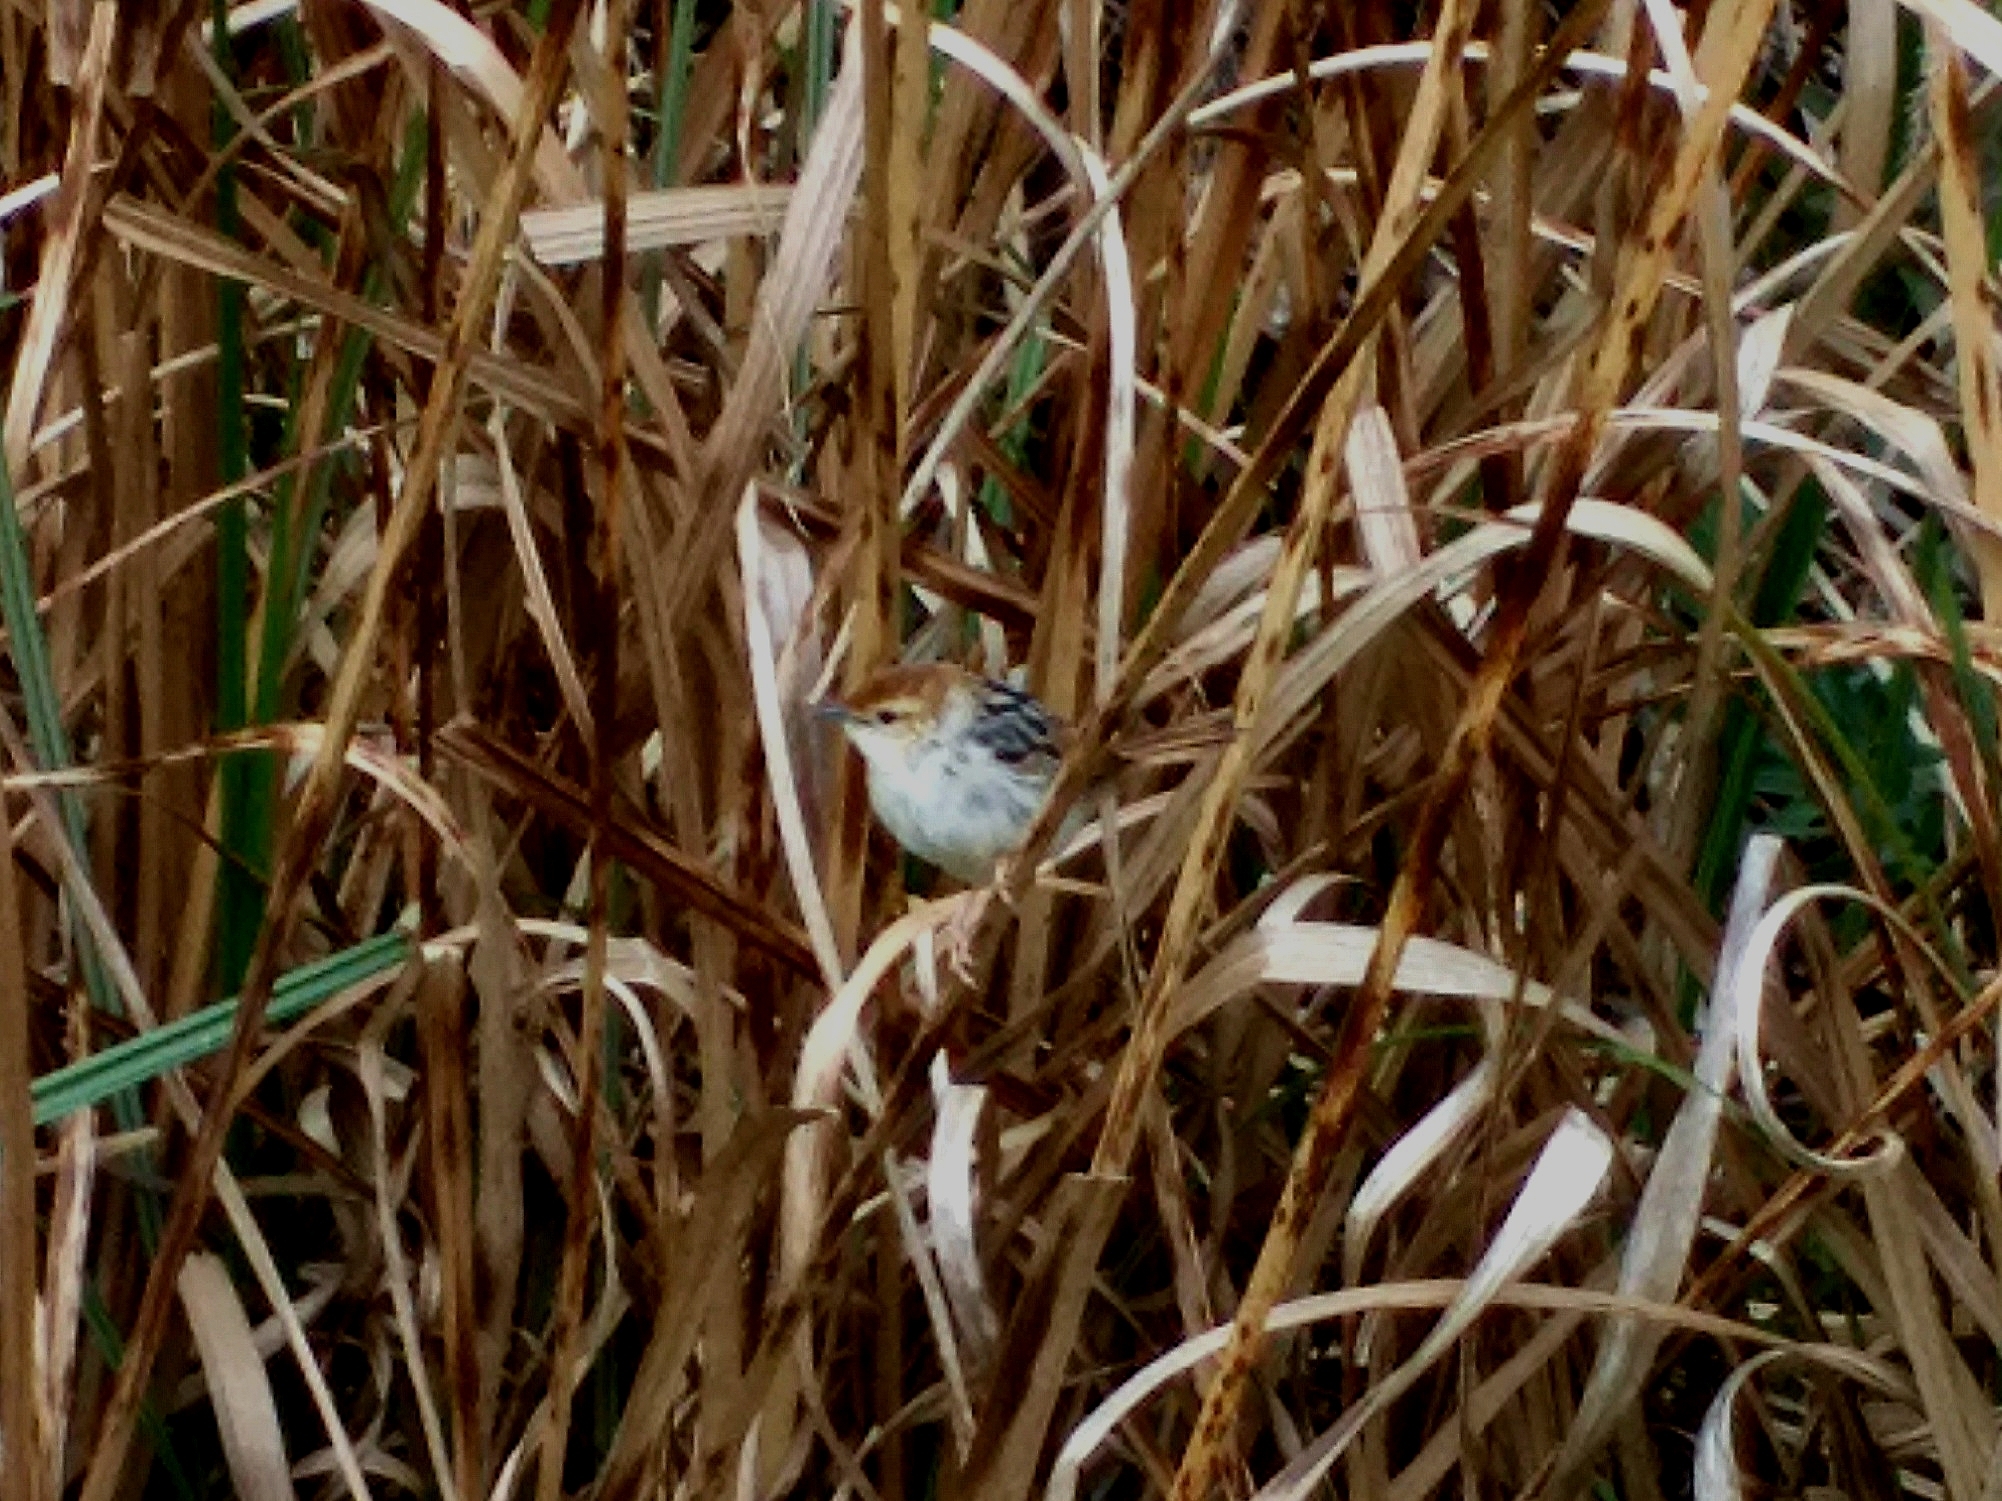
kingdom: Animalia
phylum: Chordata
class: Aves
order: Passeriformes
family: Cisticolidae
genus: Cisticola
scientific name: Cisticola tinniens
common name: Levaillant's cisticola
